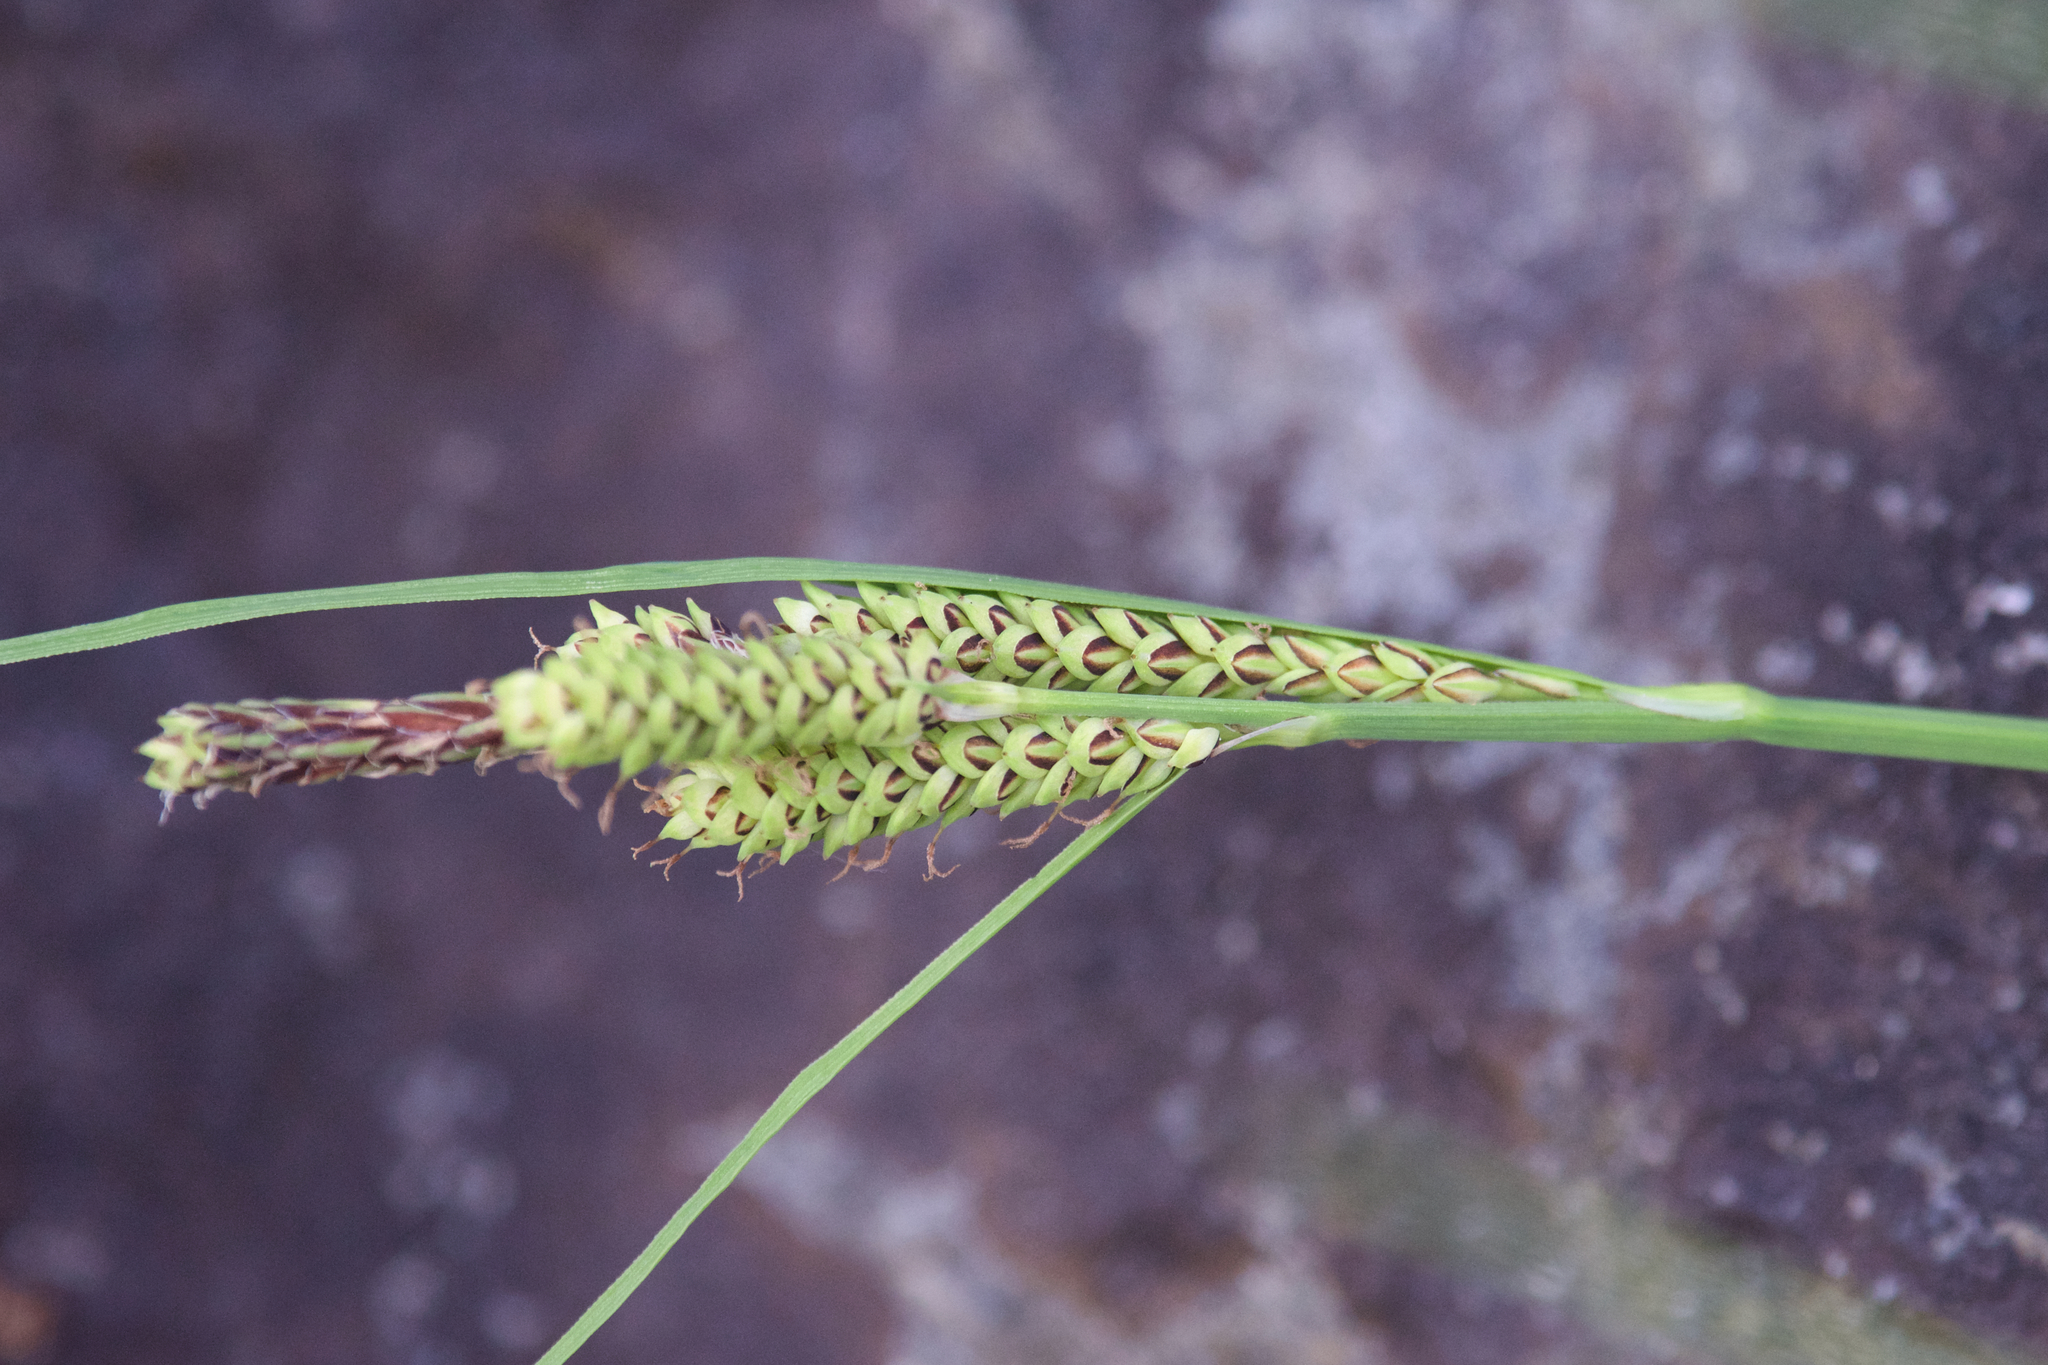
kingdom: Plantae
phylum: Tracheophyta
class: Liliopsida
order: Poales
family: Cyperaceae
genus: Carex
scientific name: Carex lenticularis
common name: Lakeshore sedge
